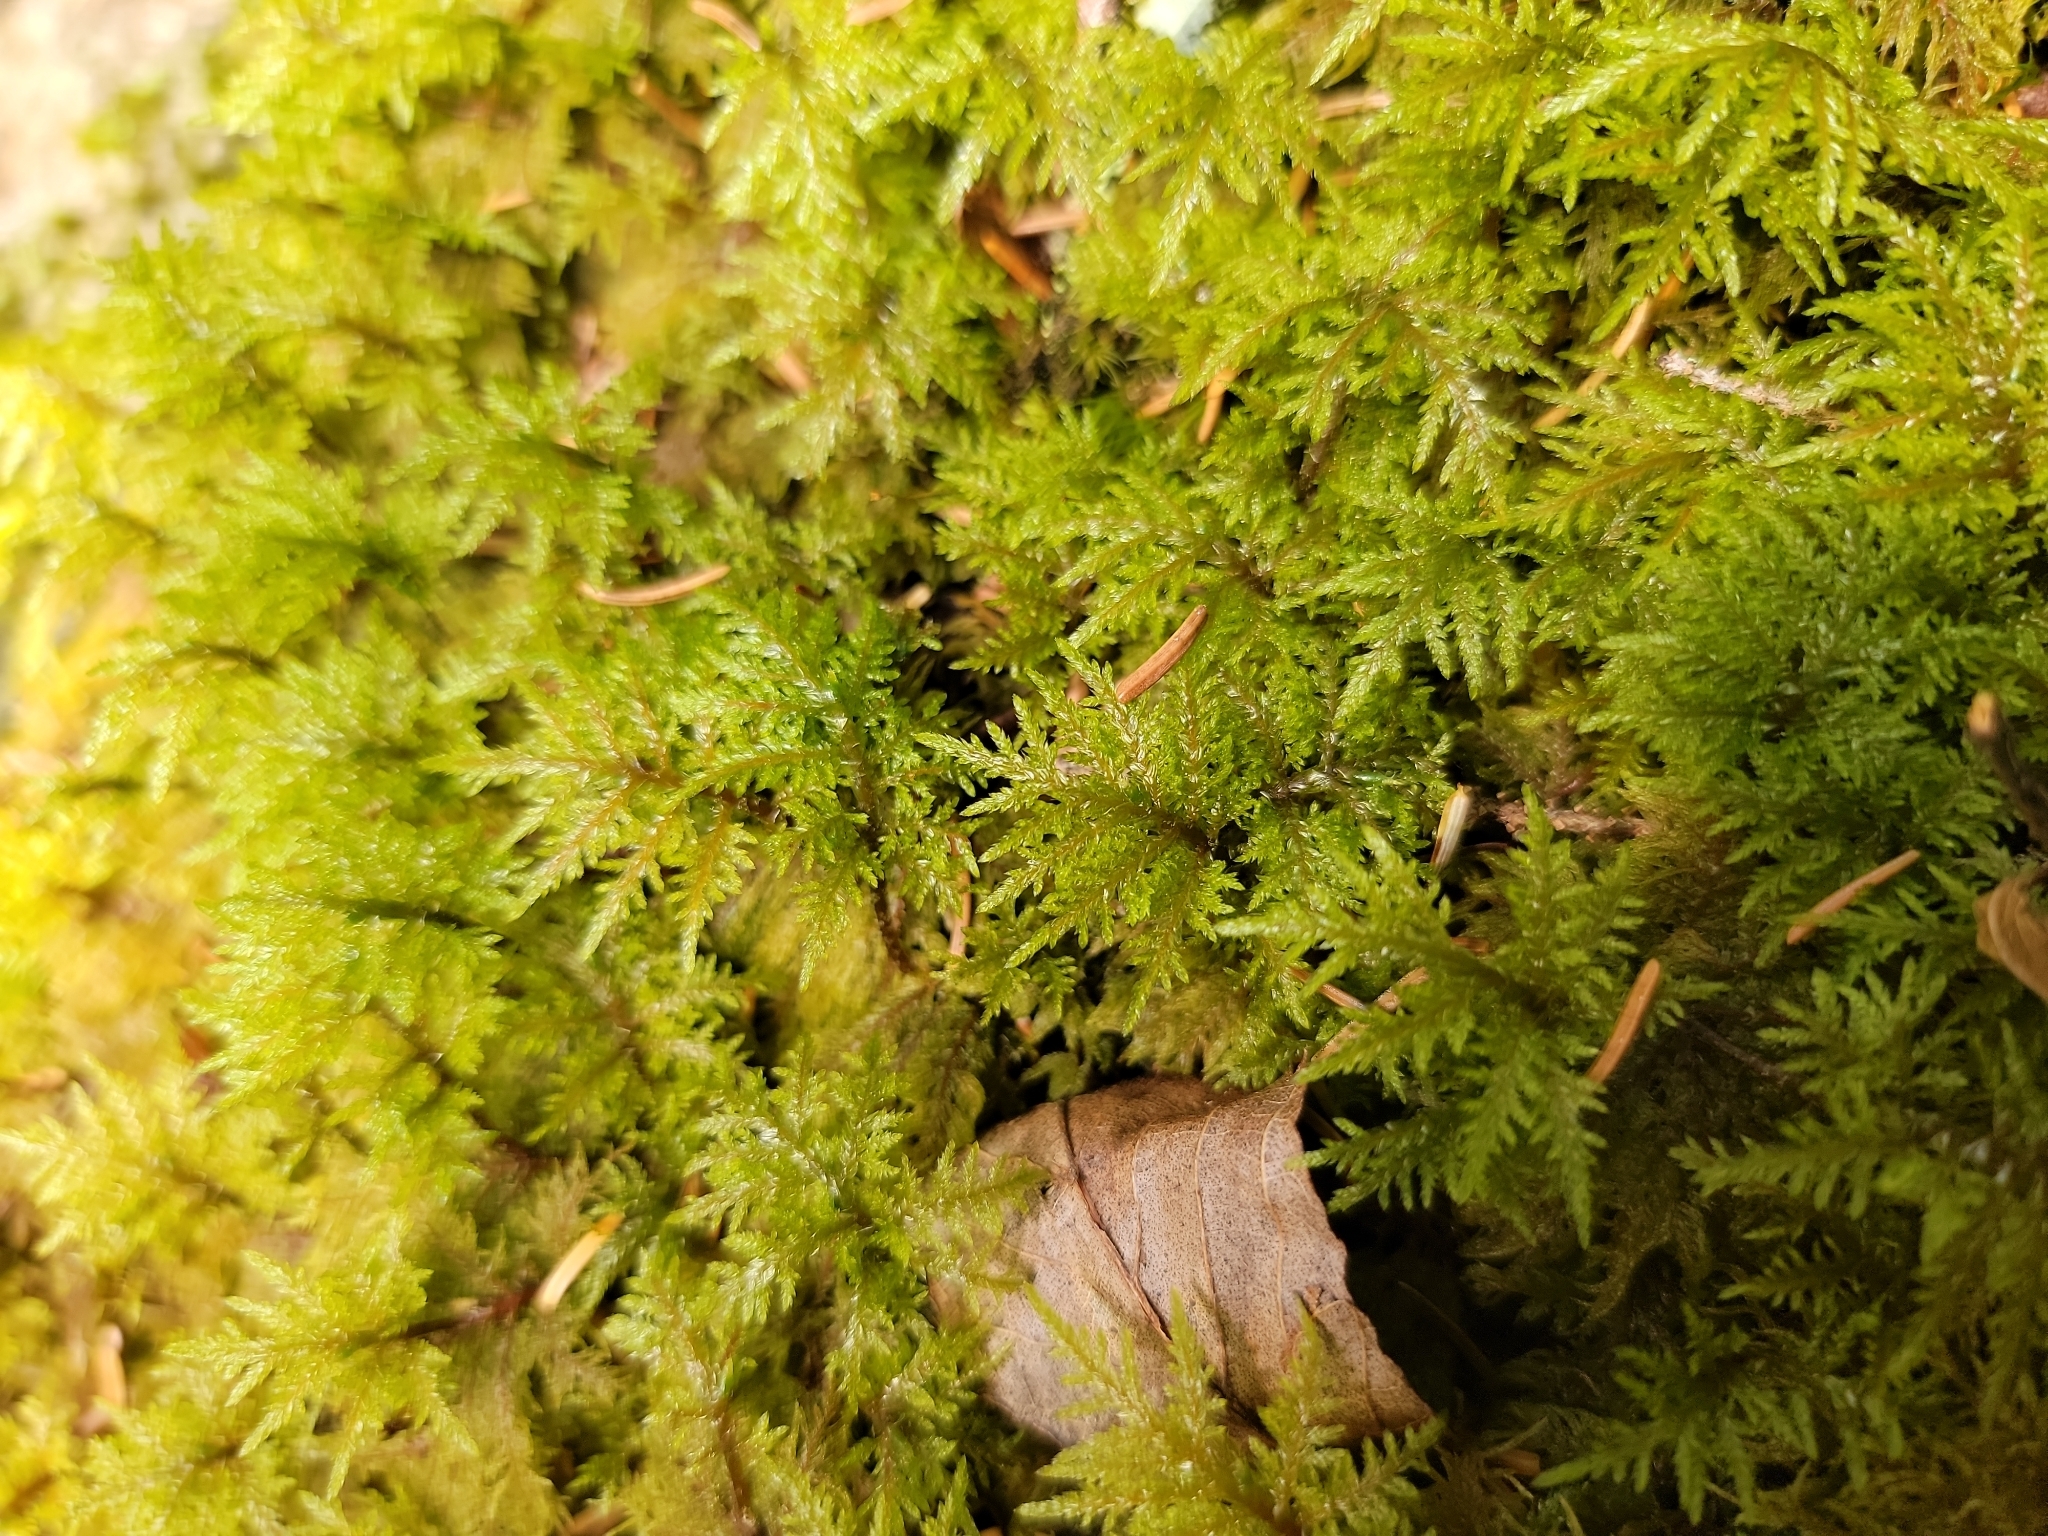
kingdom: Plantae
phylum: Bryophyta
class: Bryopsida
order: Hypnales
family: Hylocomiaceae
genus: Hylocomium
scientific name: Hylocomium splendens
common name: Stairstep moss
